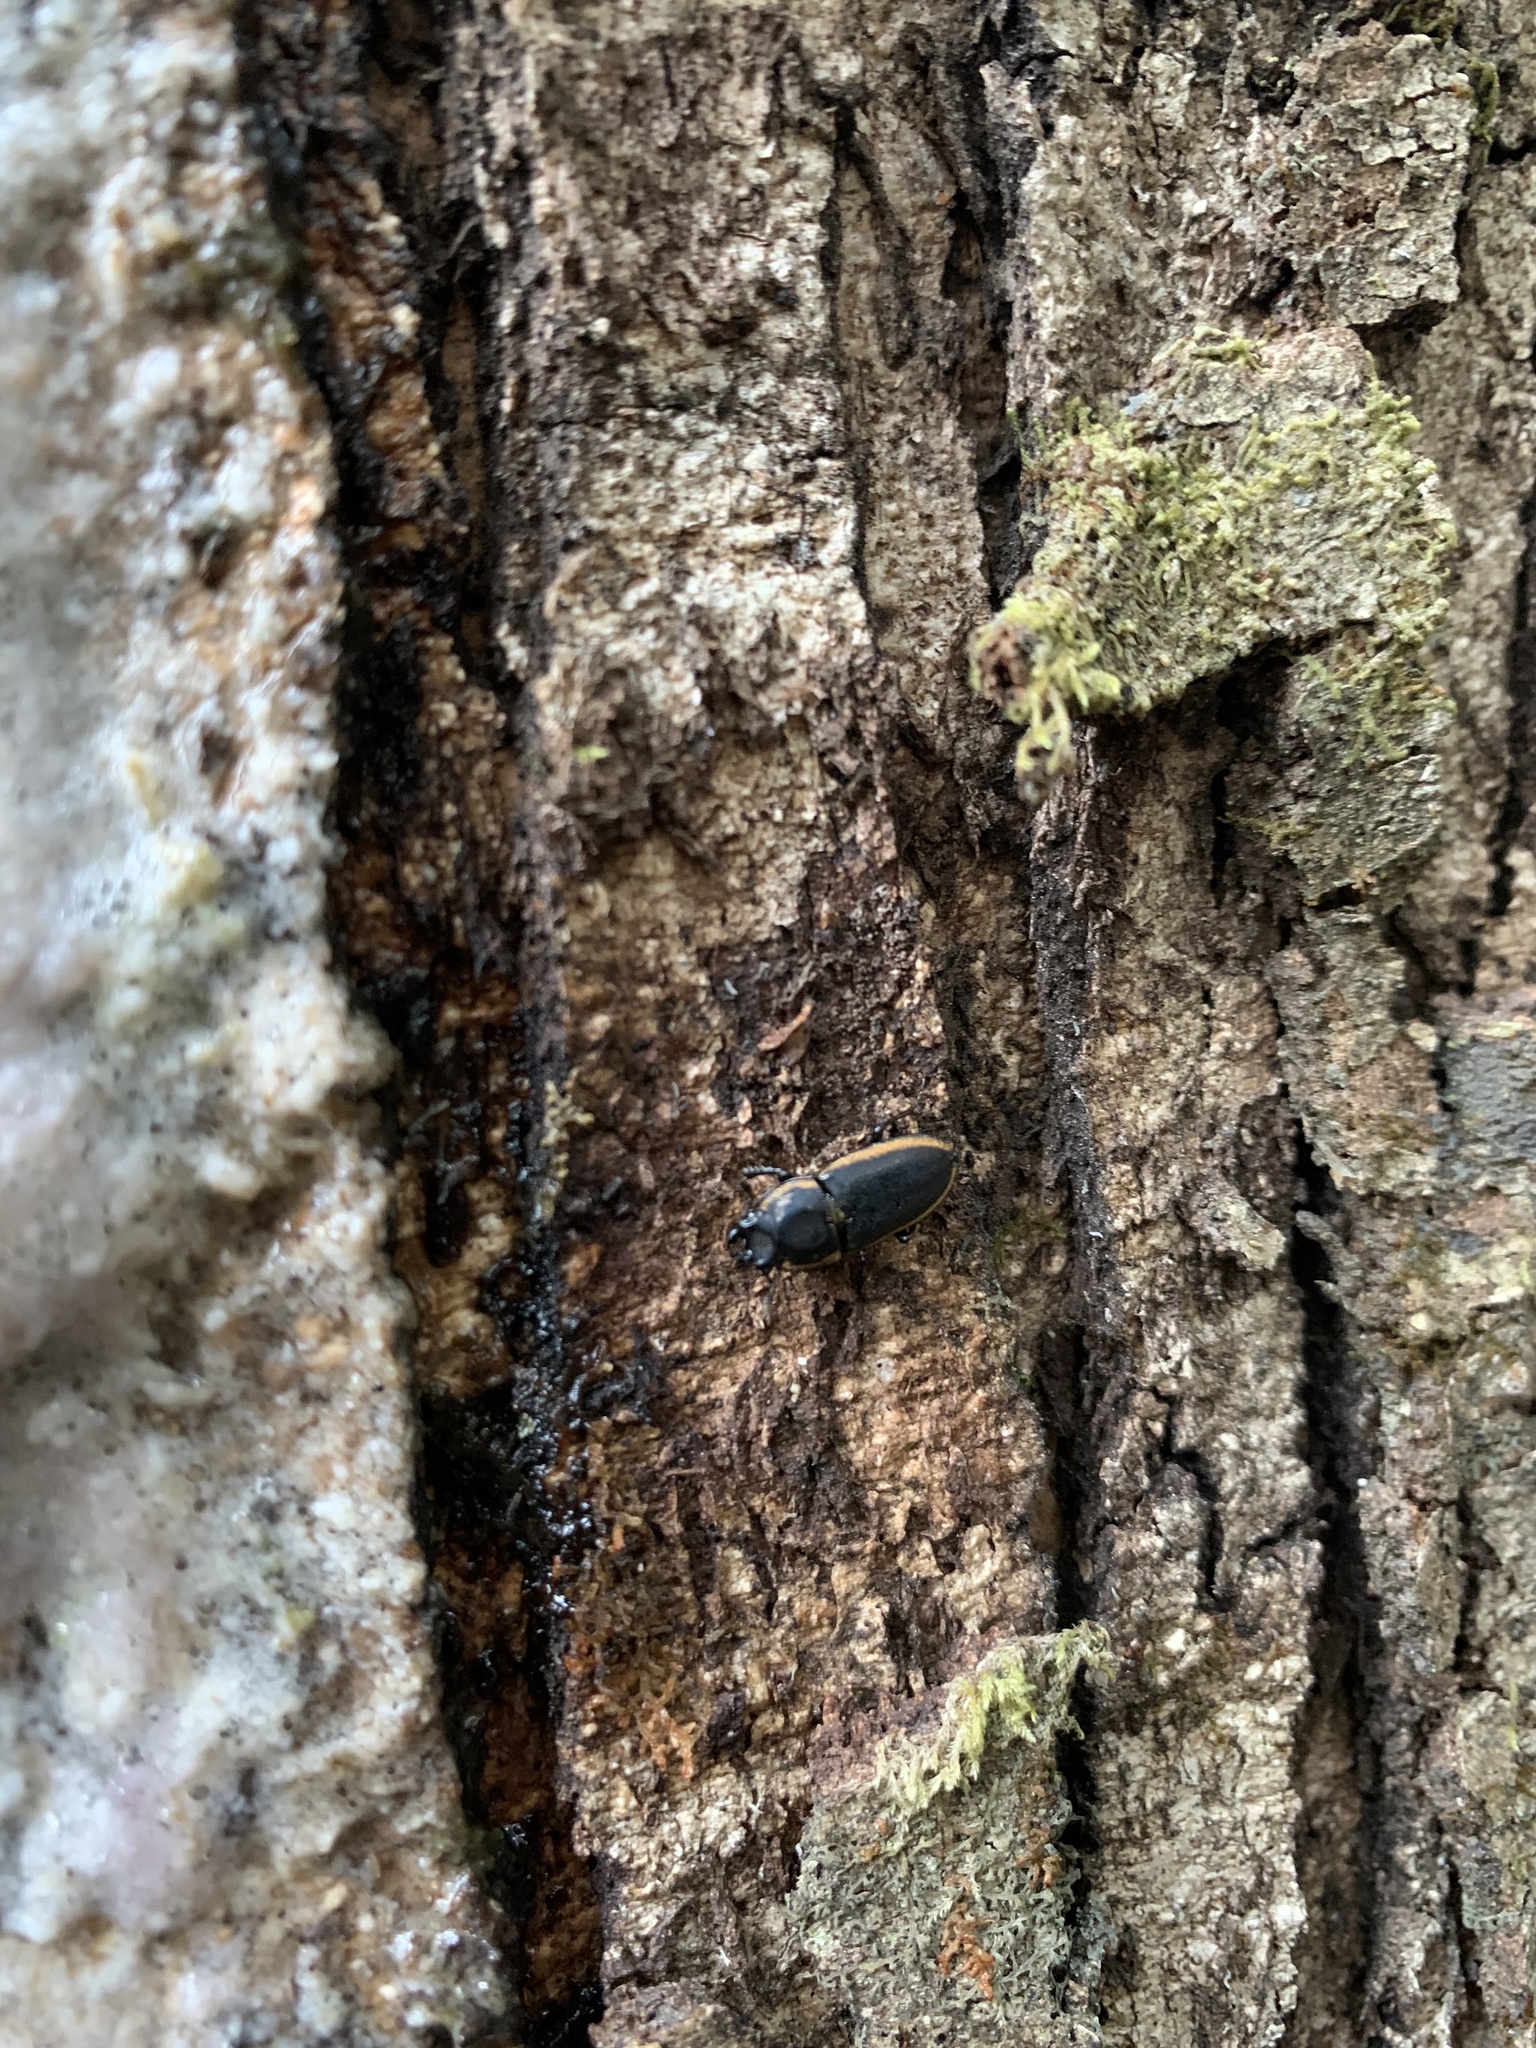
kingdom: Animalia
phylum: Arthropoda
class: Insecta
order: Coleoptera
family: Lucanidae
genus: Pycnosiphorus
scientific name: Pycnosiphorus lessonii
